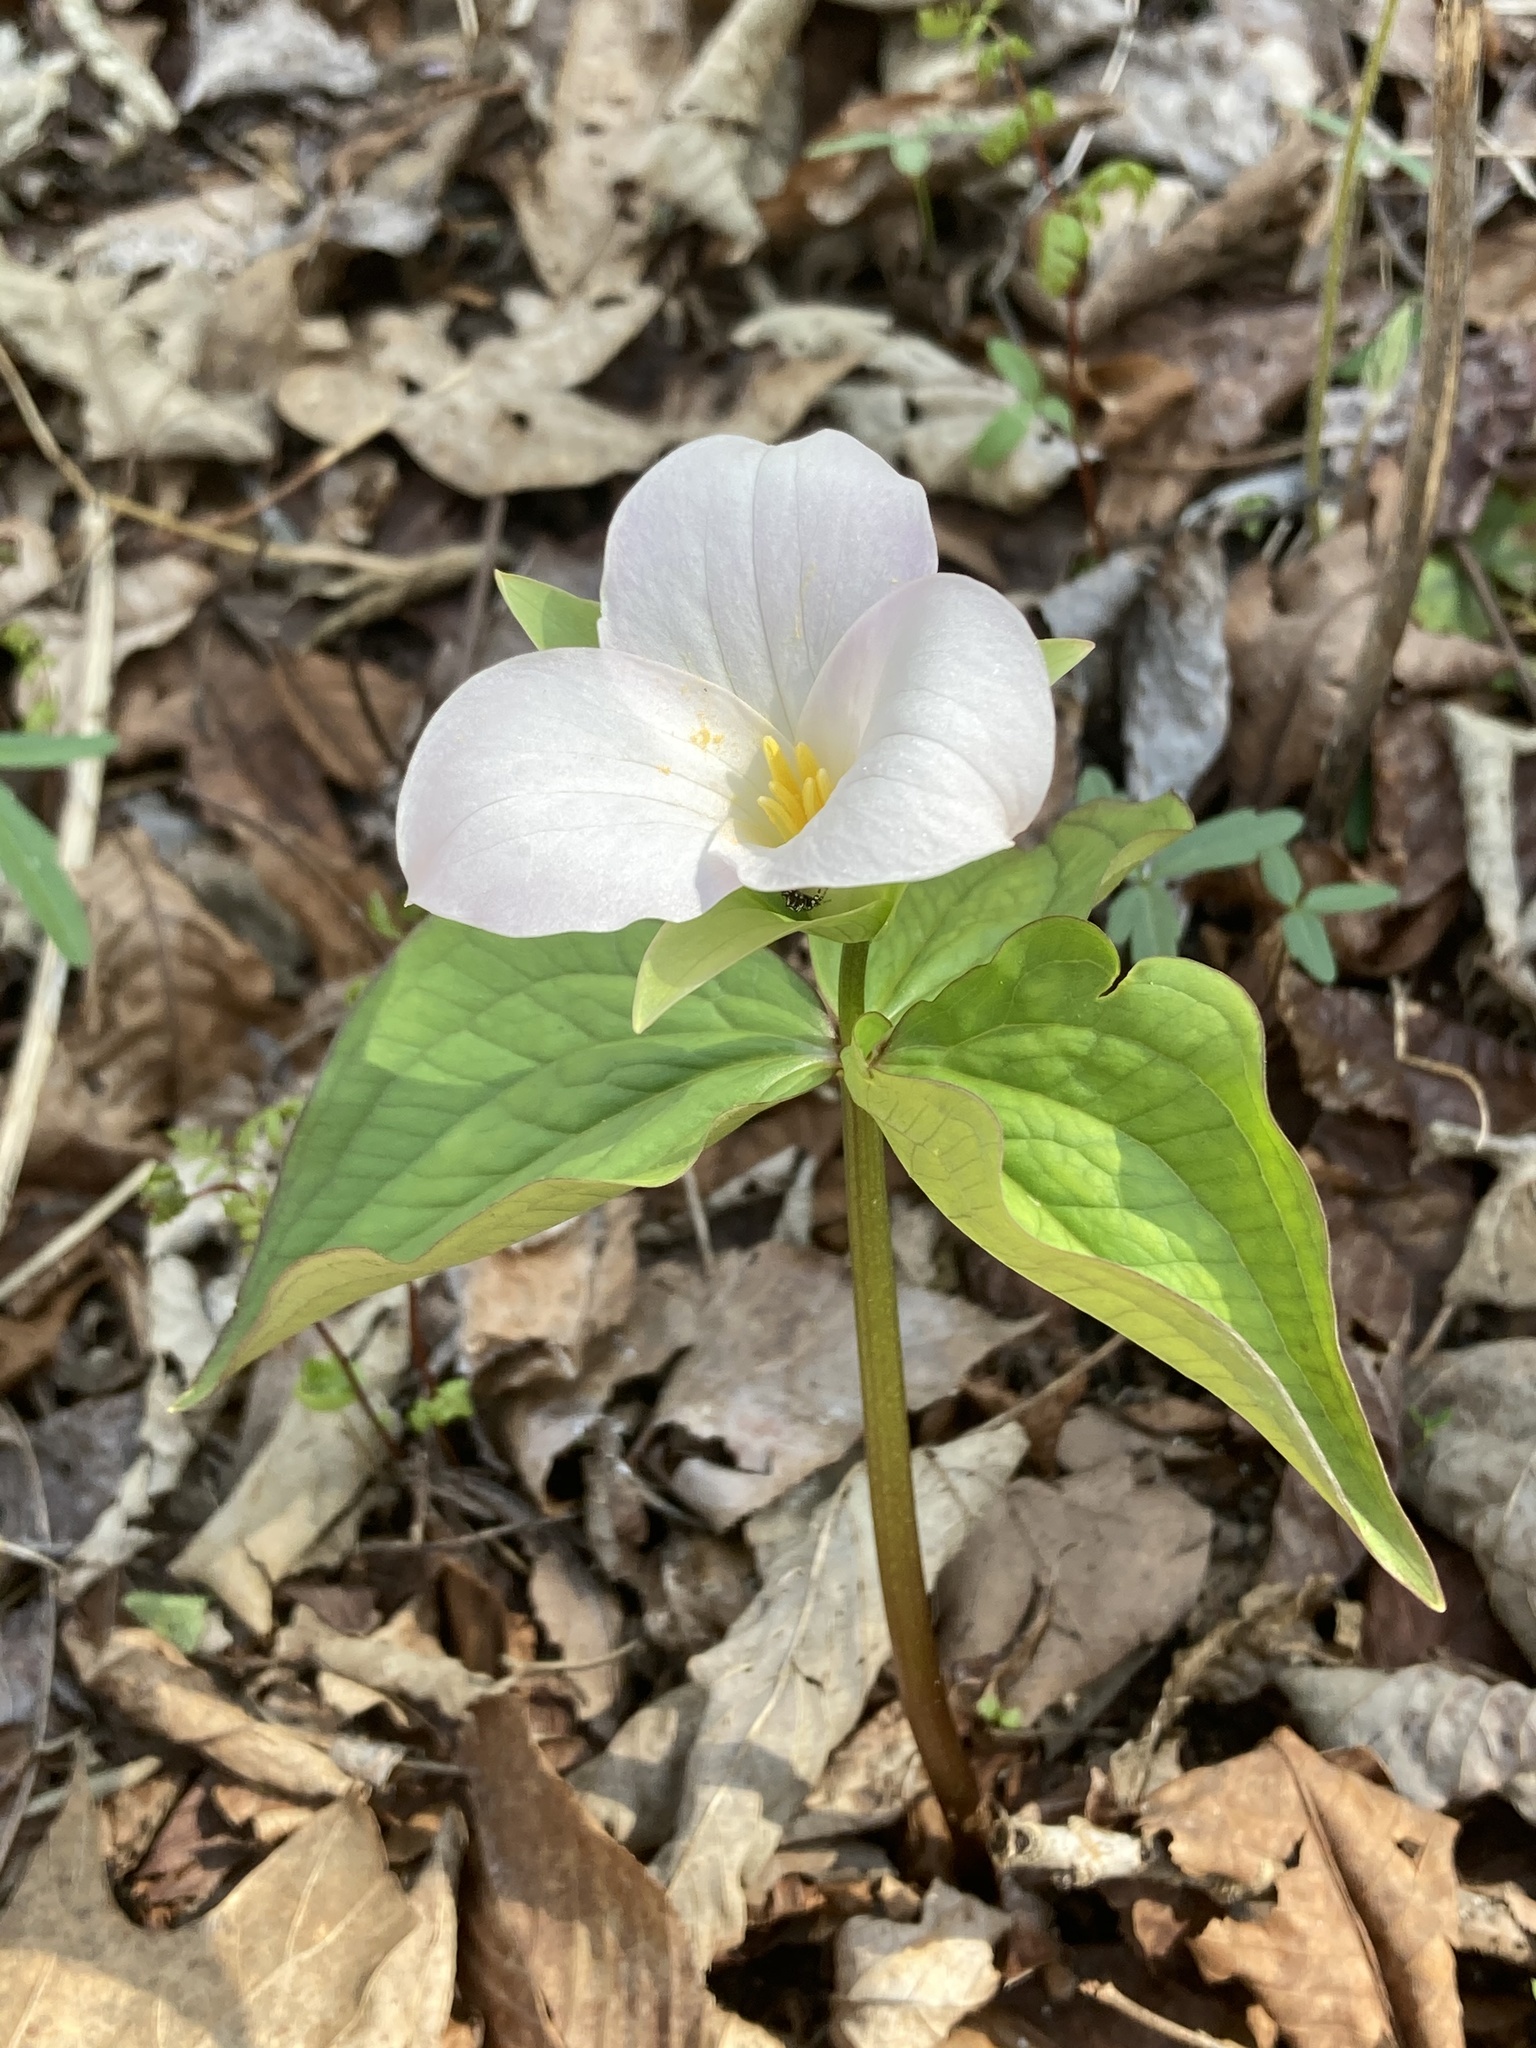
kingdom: Plantae
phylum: Tracheophyta
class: Liliopsida
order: Liliales
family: Melanthiaceae
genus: Trillium
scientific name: Trillium grandiflorum
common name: Great white trillium
